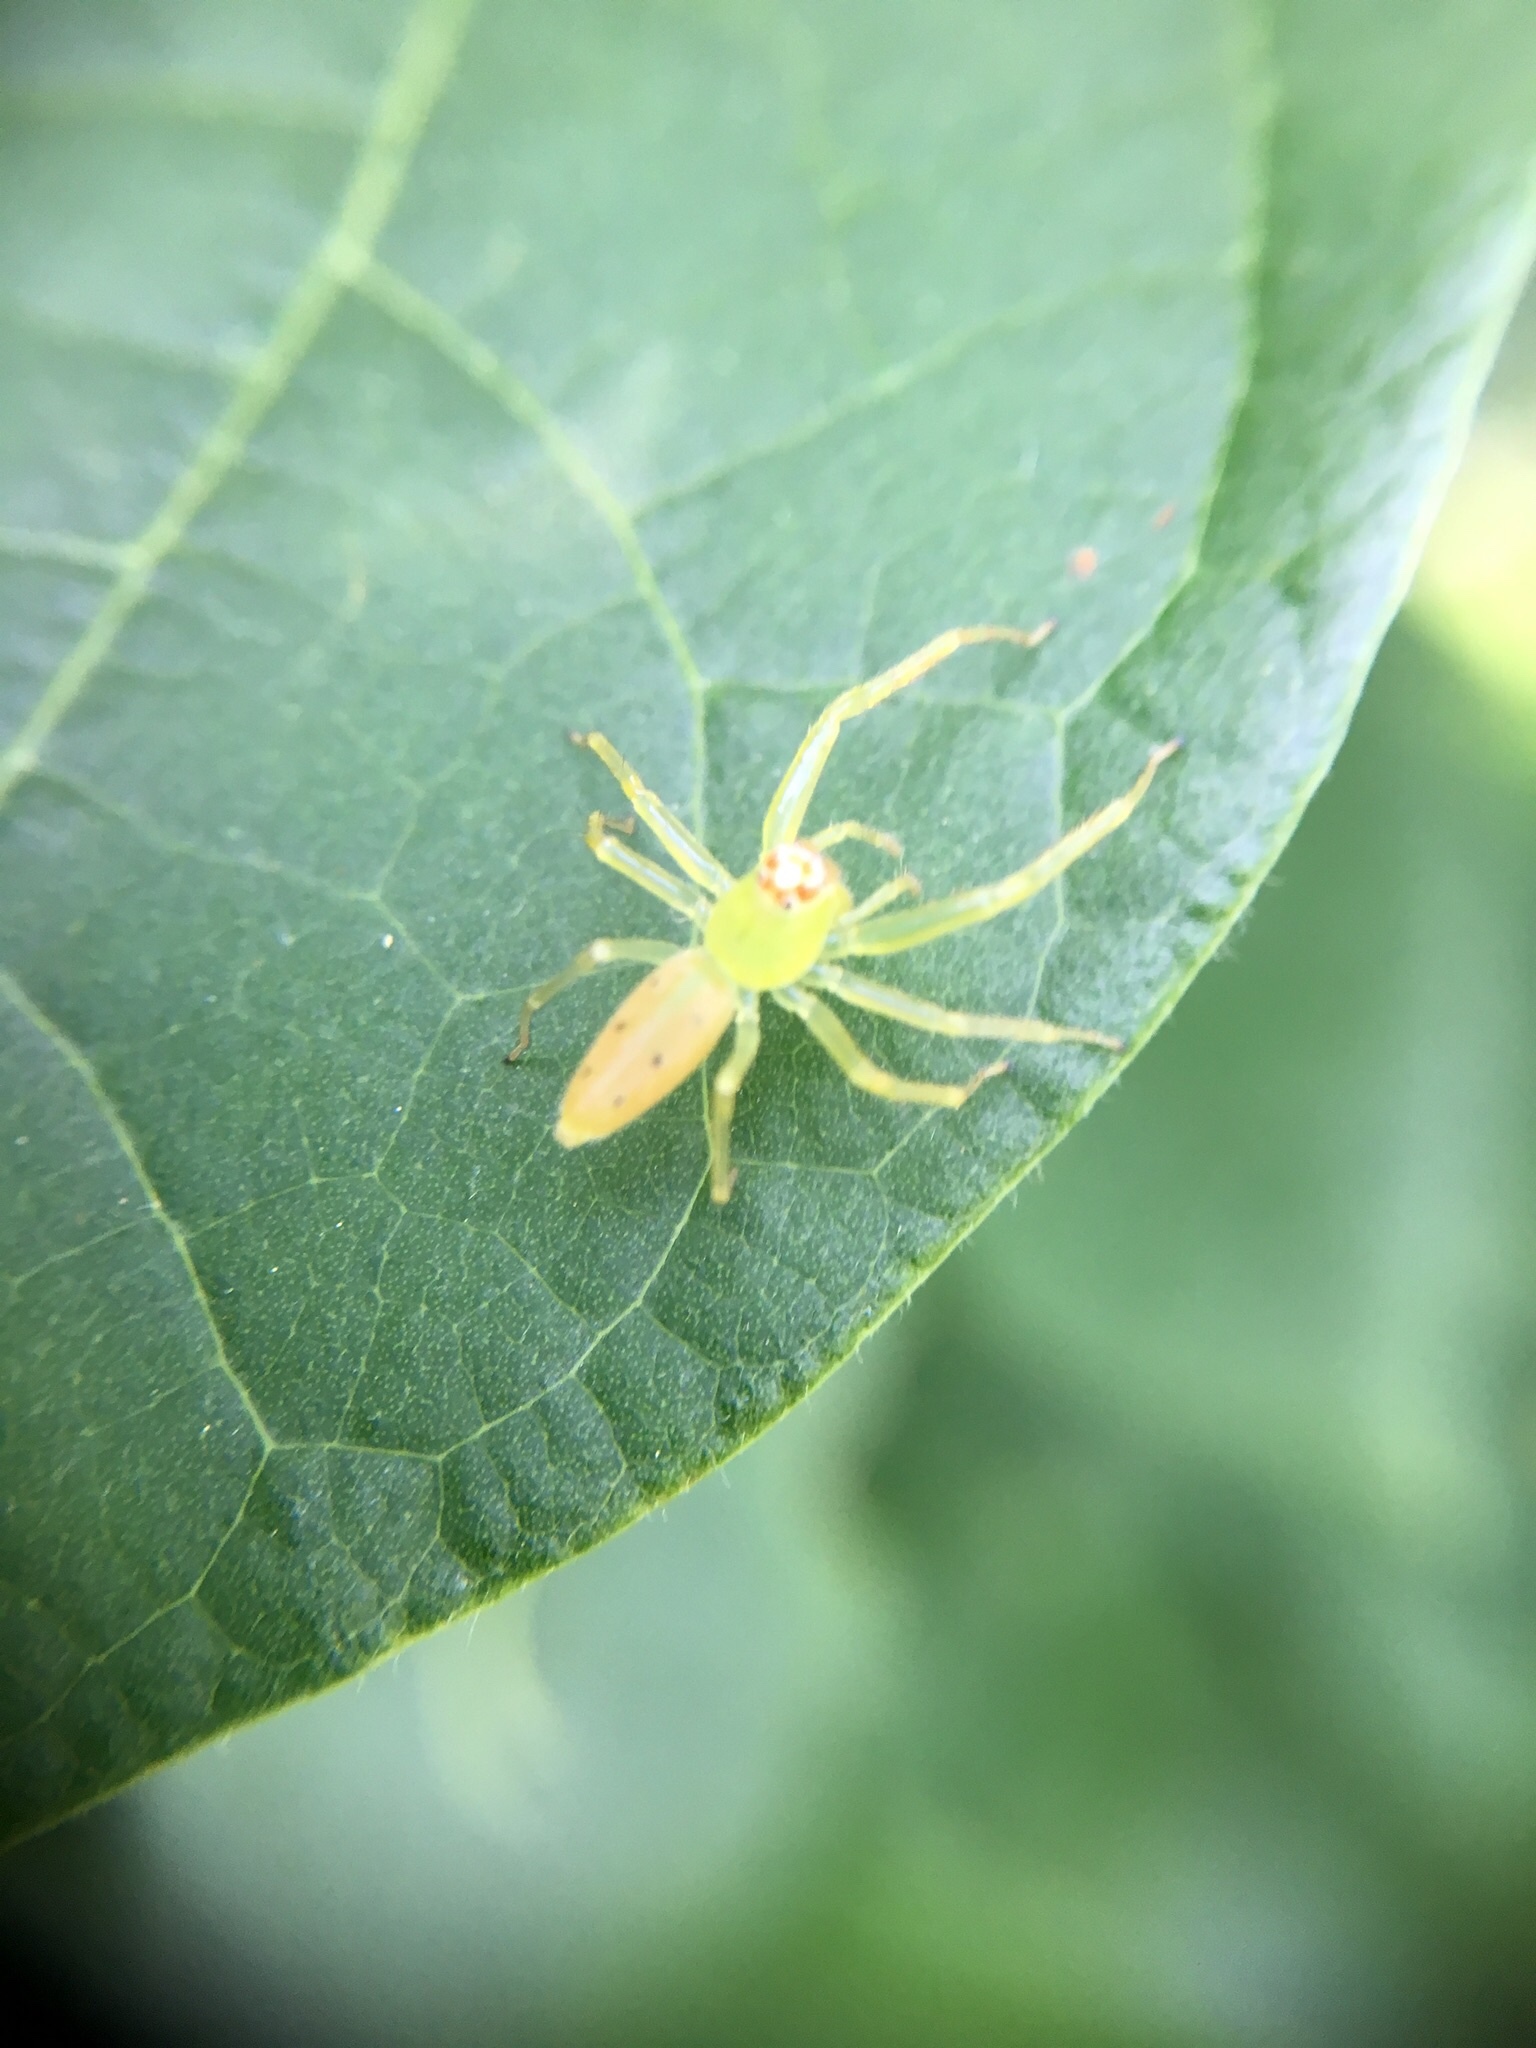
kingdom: Animalia
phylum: Arthropoda
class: Arachnida
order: Araneae
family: Salticidae
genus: Lyssomanes
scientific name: Lyssomanes viridis
